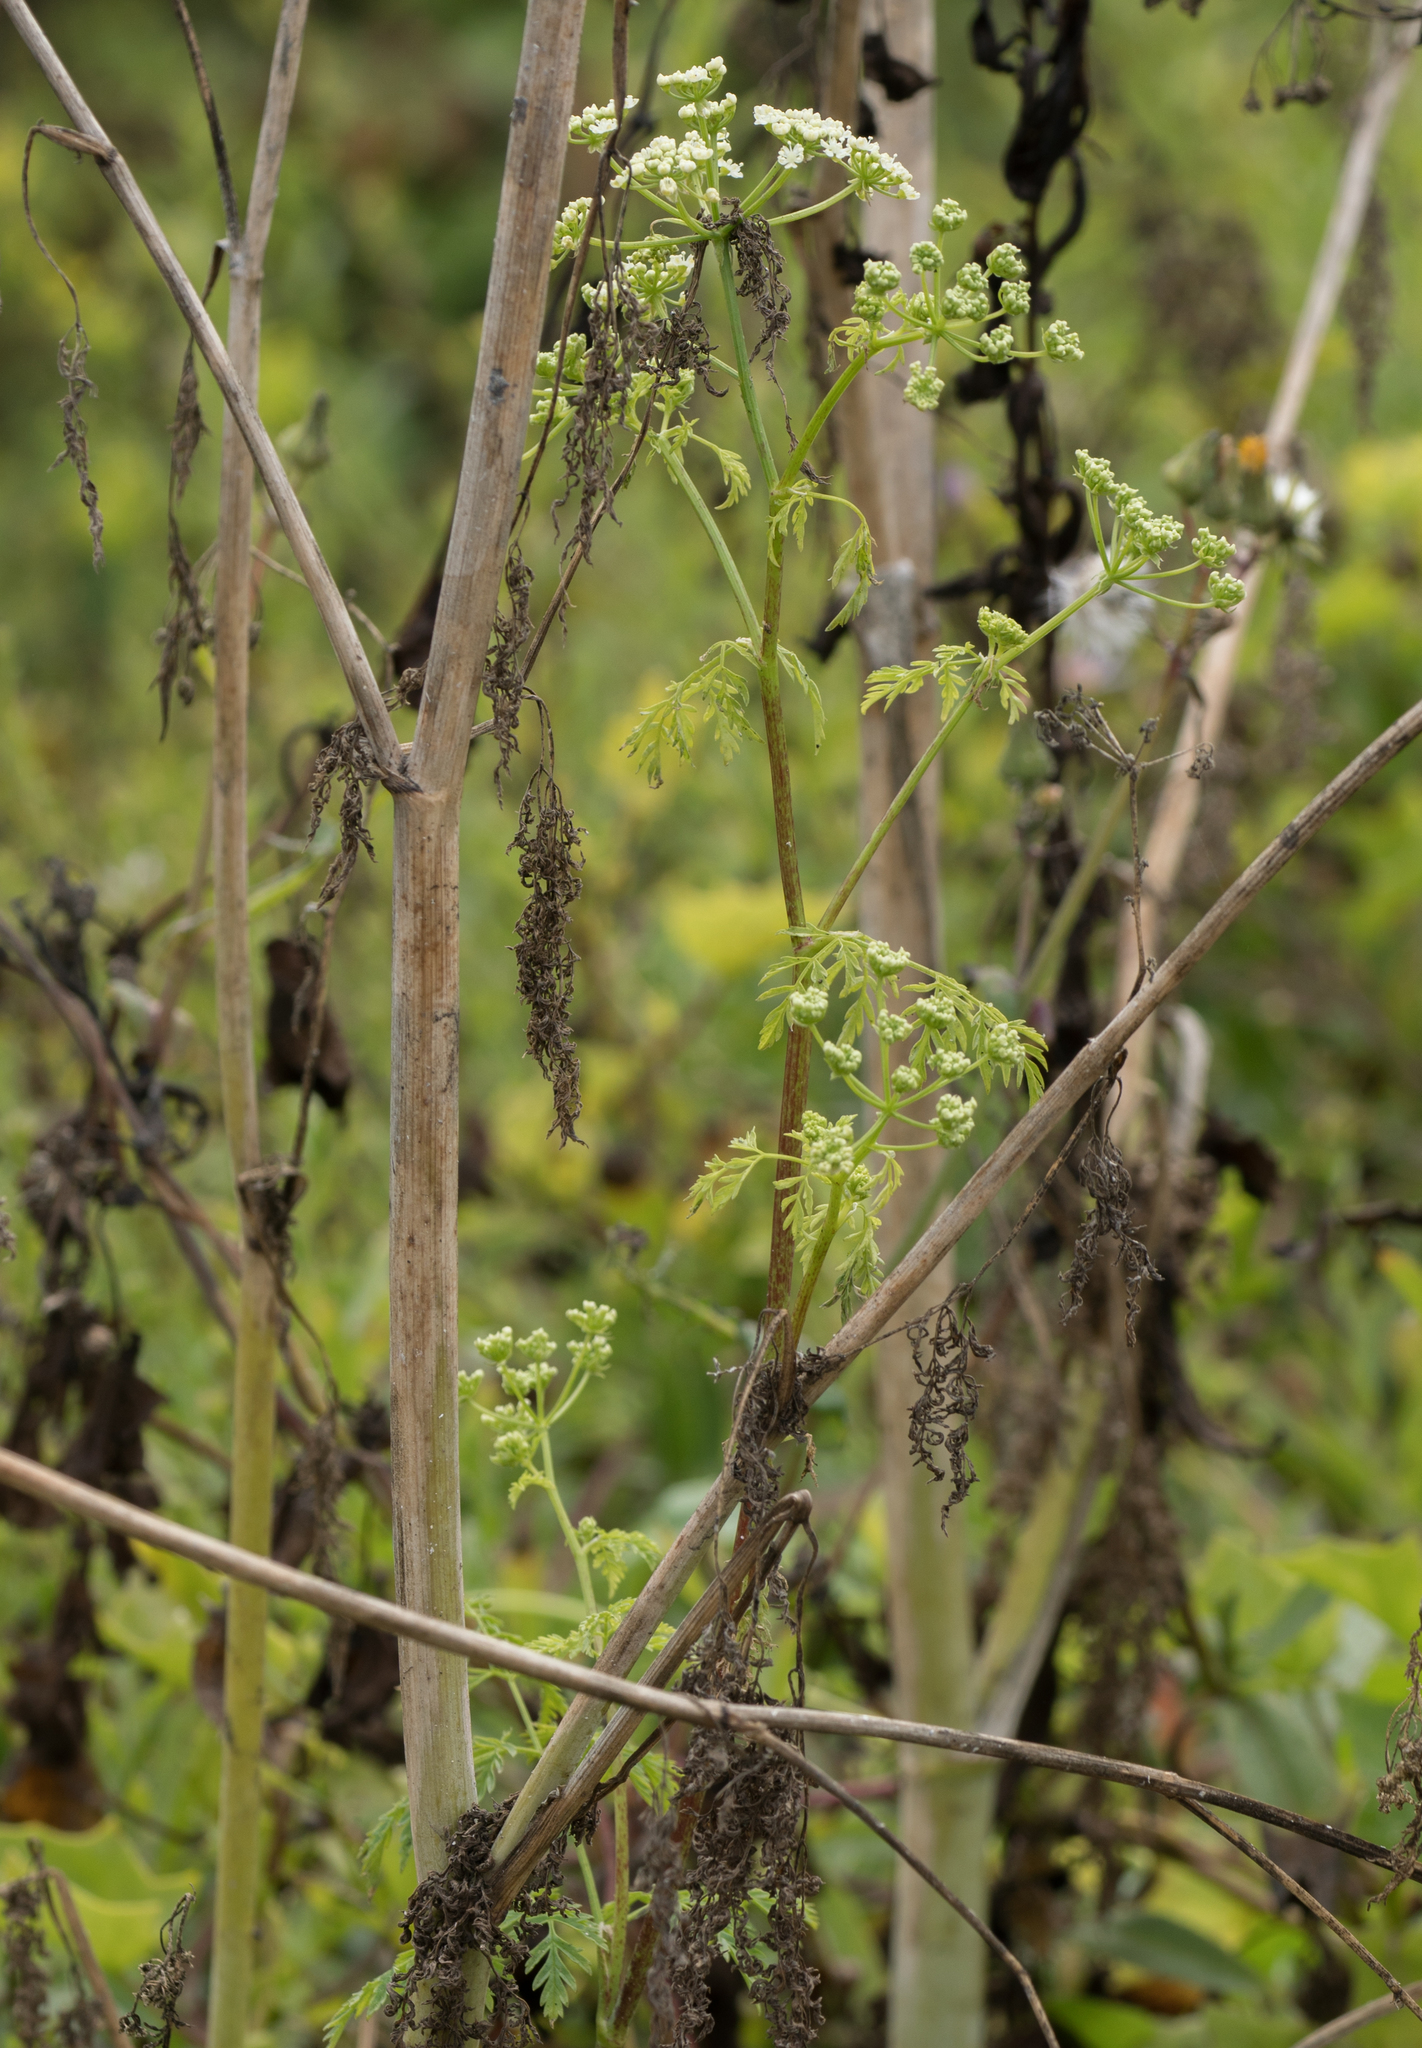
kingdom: Plantae
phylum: Tracheophyta
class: Magnoliopsida
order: Apiales
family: Apiaceae
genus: Conium
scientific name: Conium maculatum
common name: Hemlock
